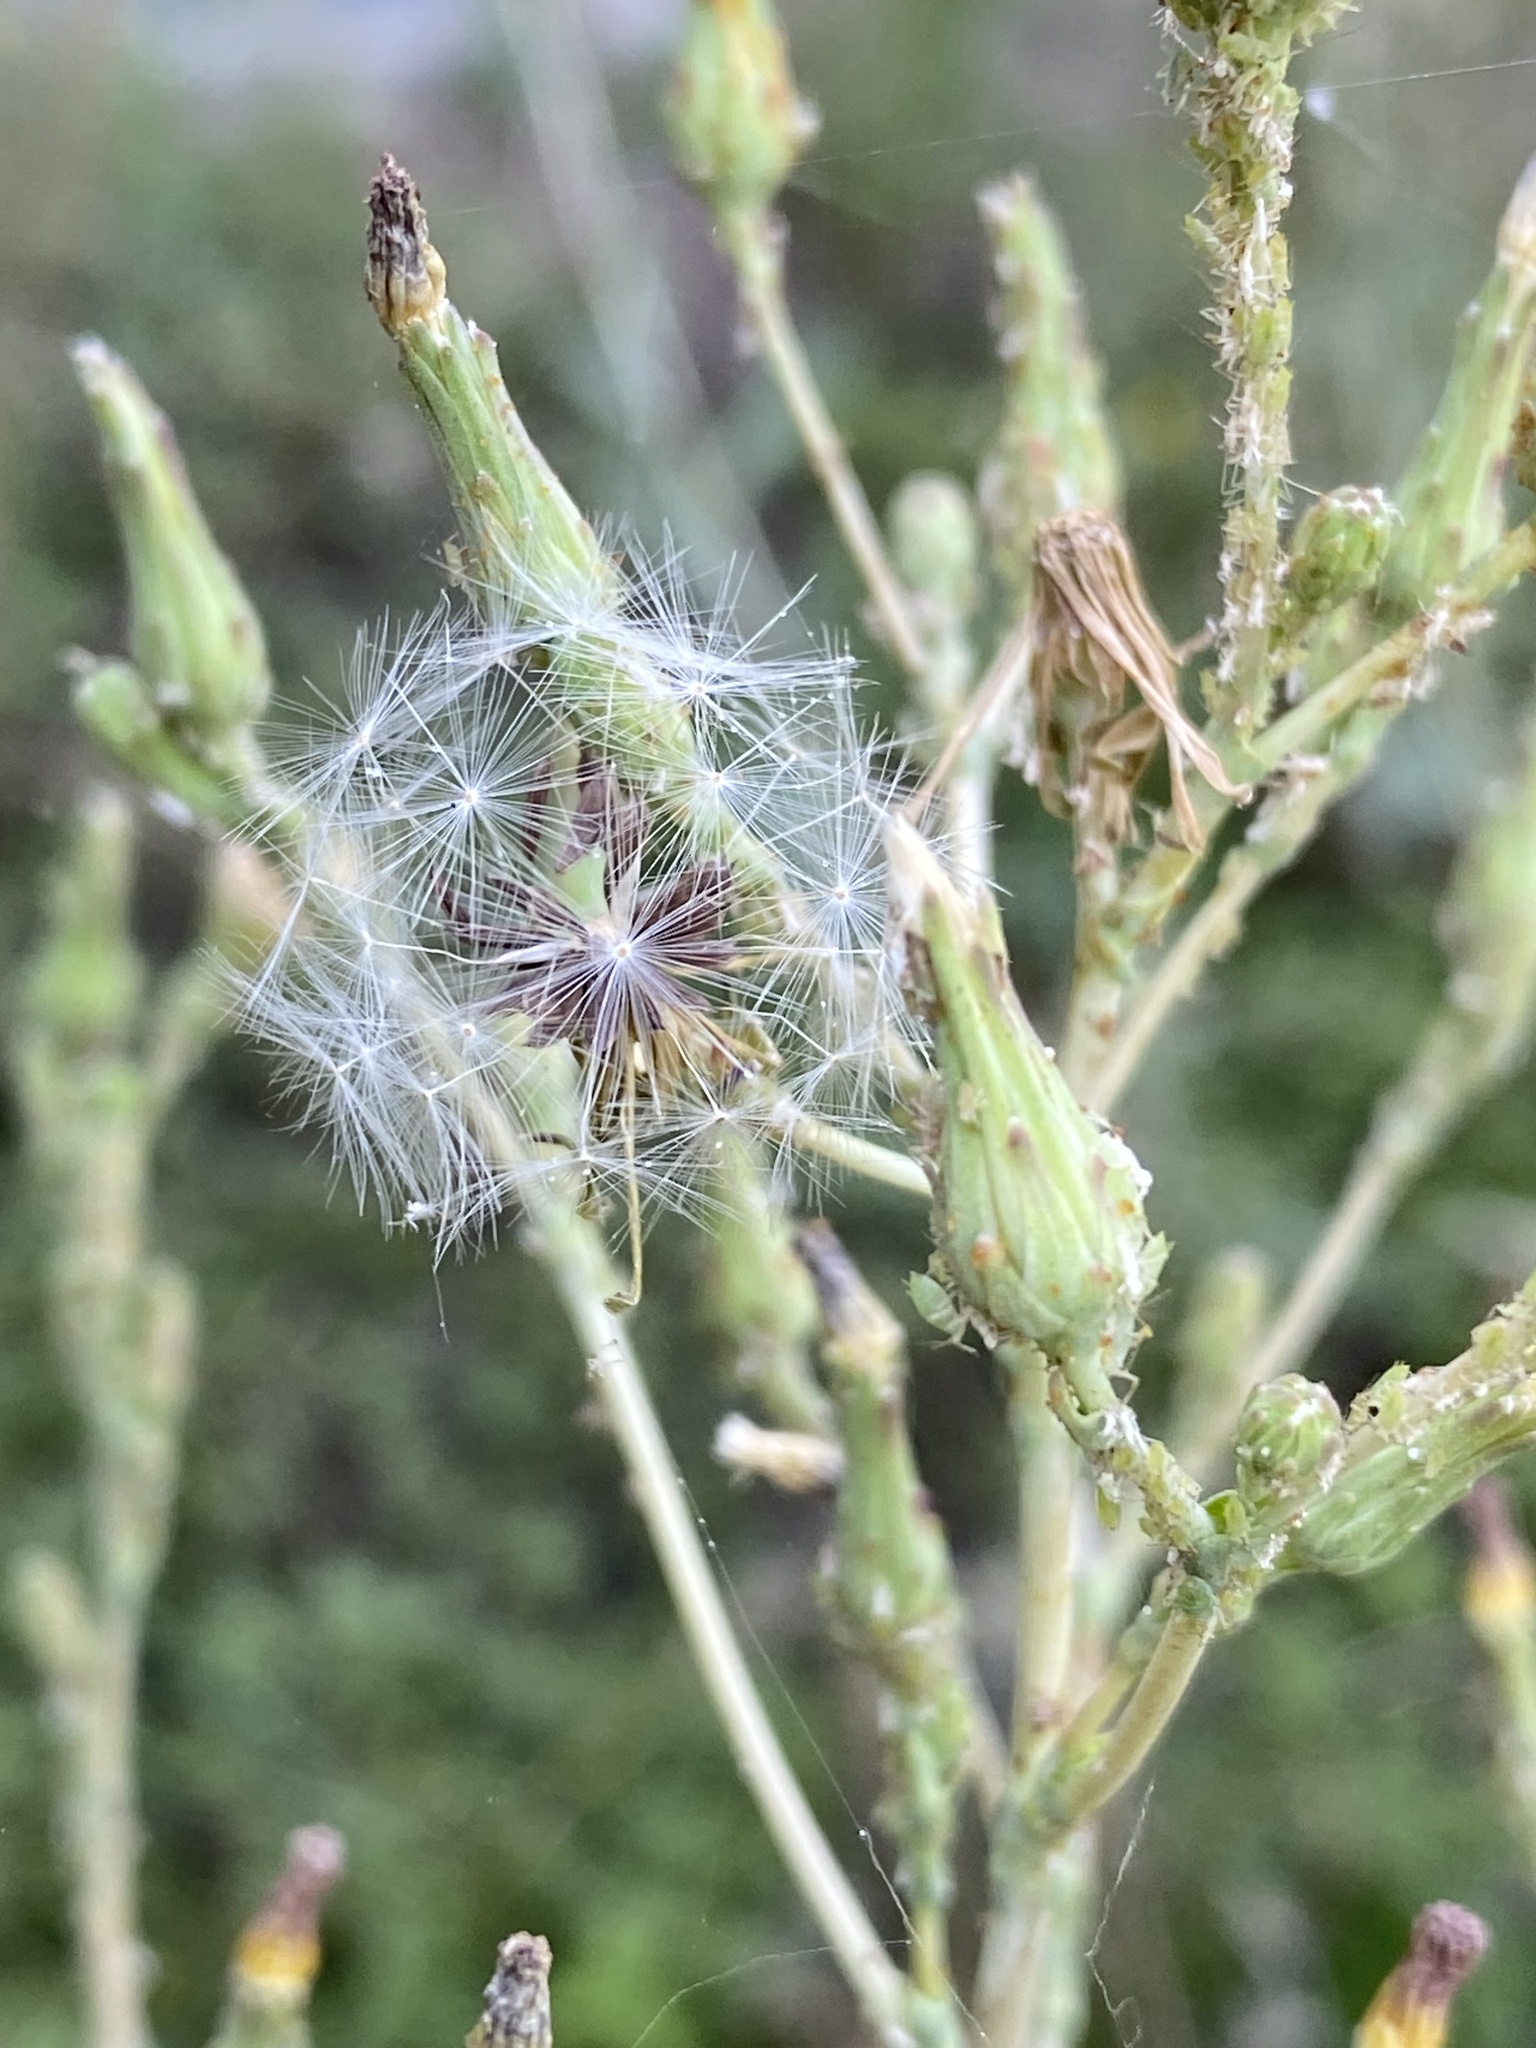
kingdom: Plantae
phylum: Tracheophyta
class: Magnoliopsida
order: Asterales
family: Asteraceae
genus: Lactuca
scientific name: Lactuca serriola
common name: Prickly lettuce
